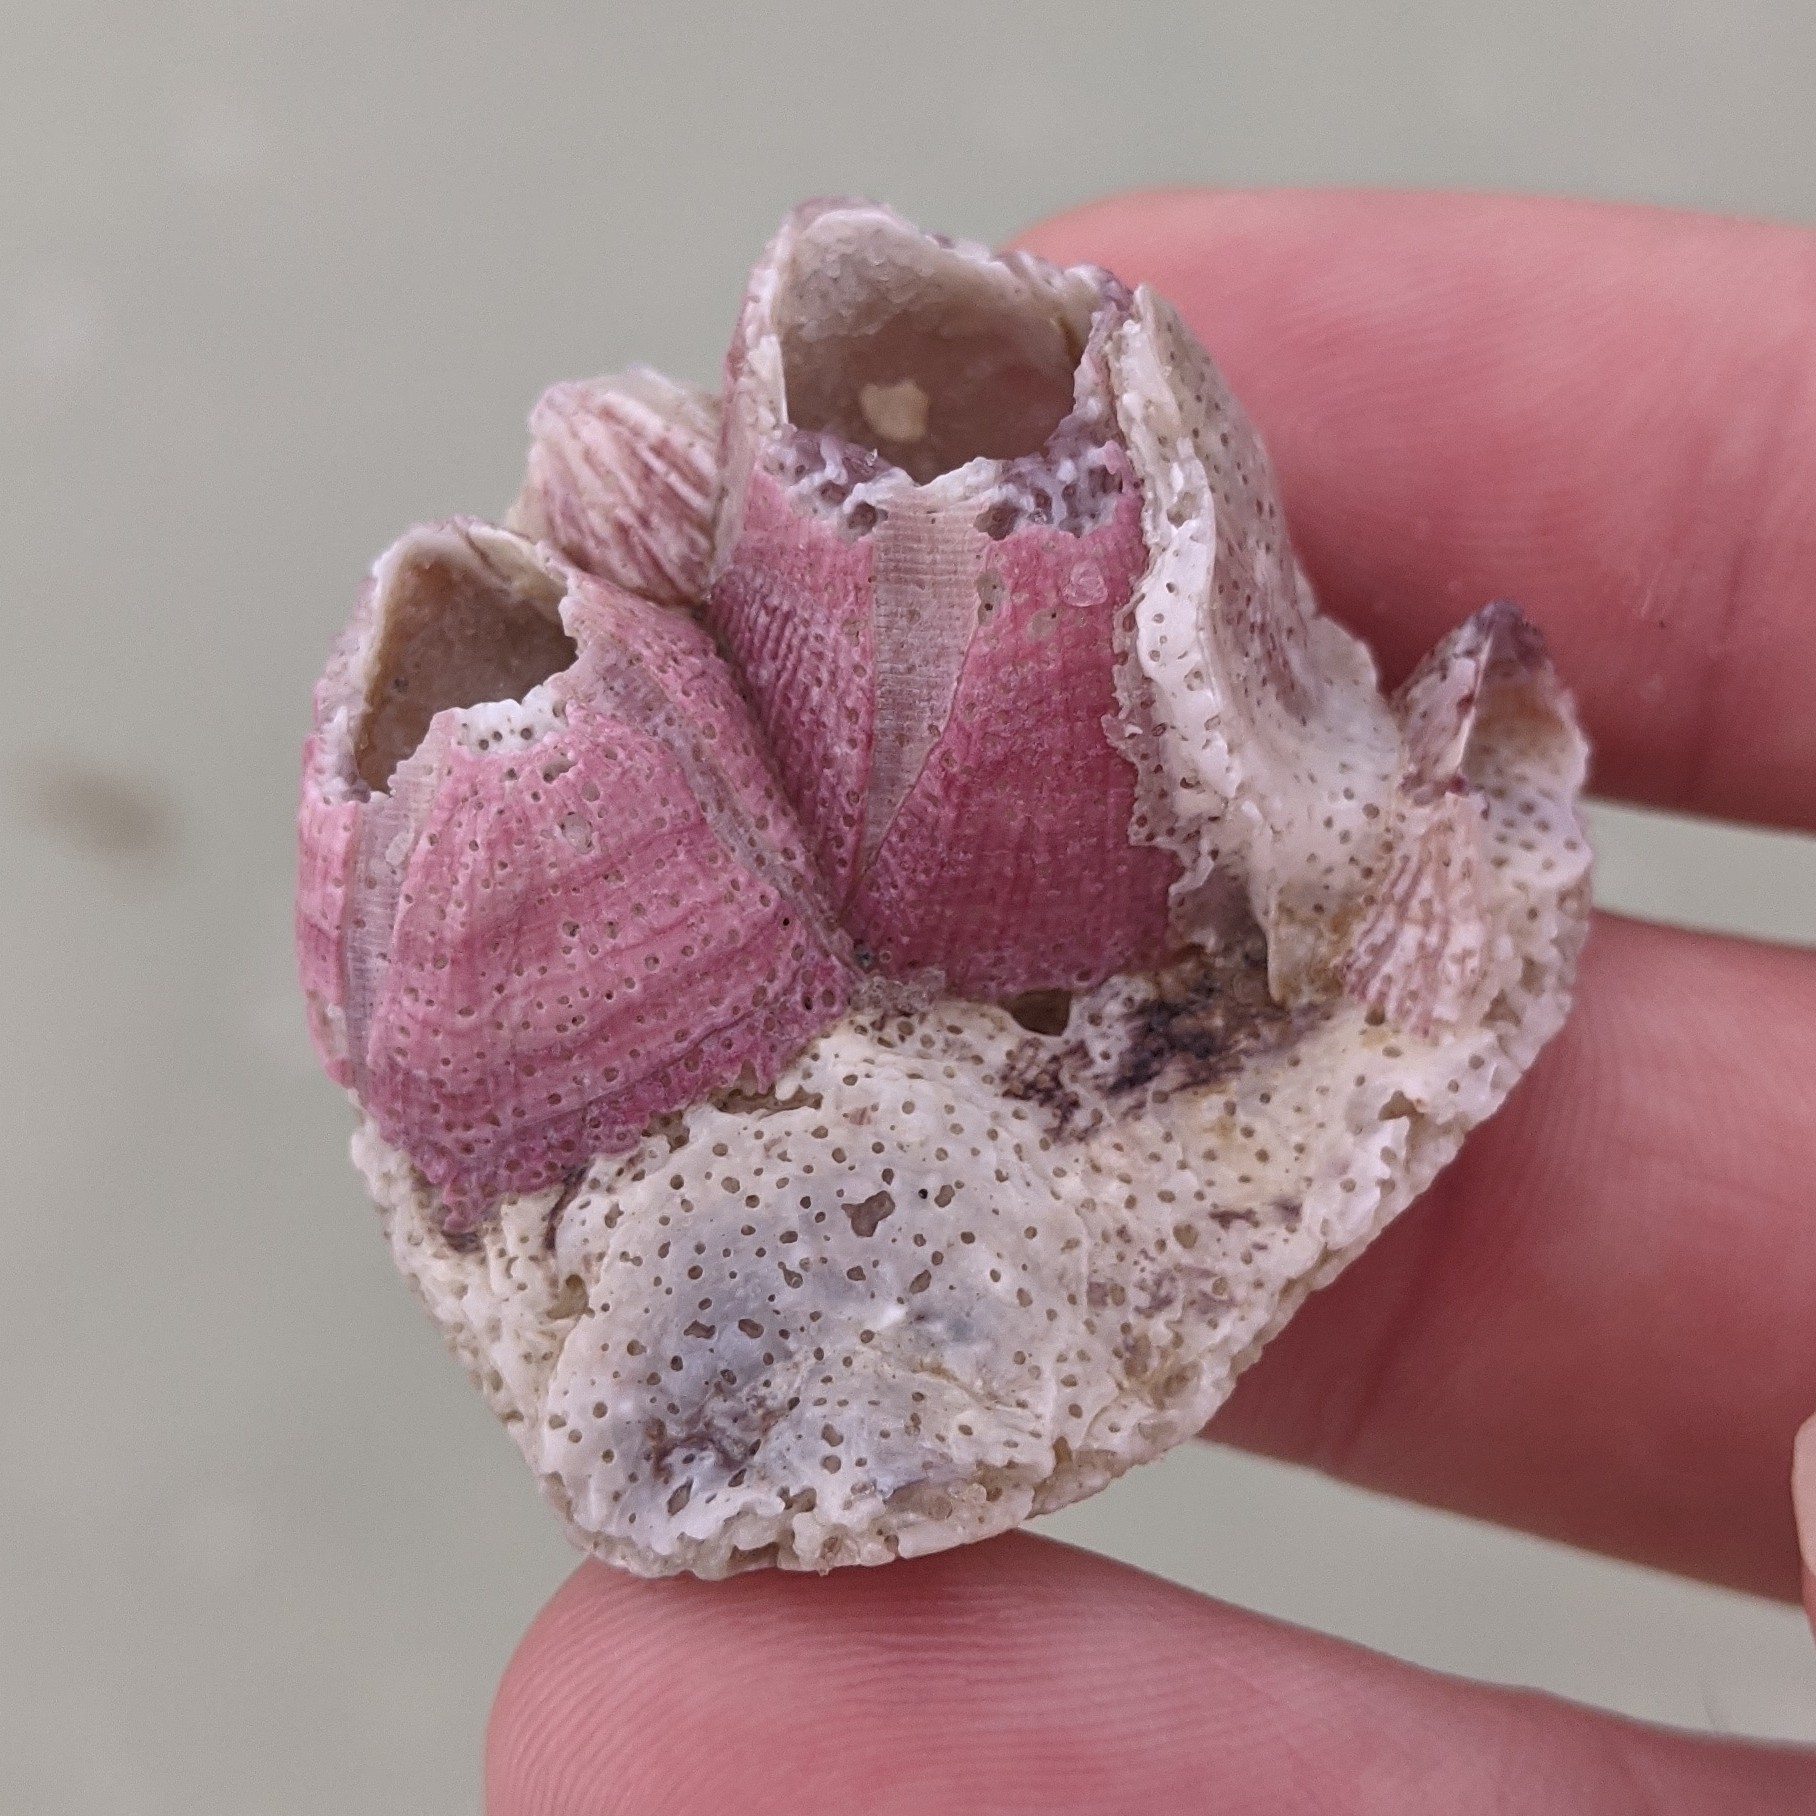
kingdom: Animalia
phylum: Arthropoda
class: Maxillopoda
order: Sessilia
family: Balanidae
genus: Megabalanus
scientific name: Megabalanus tintinnabulum
